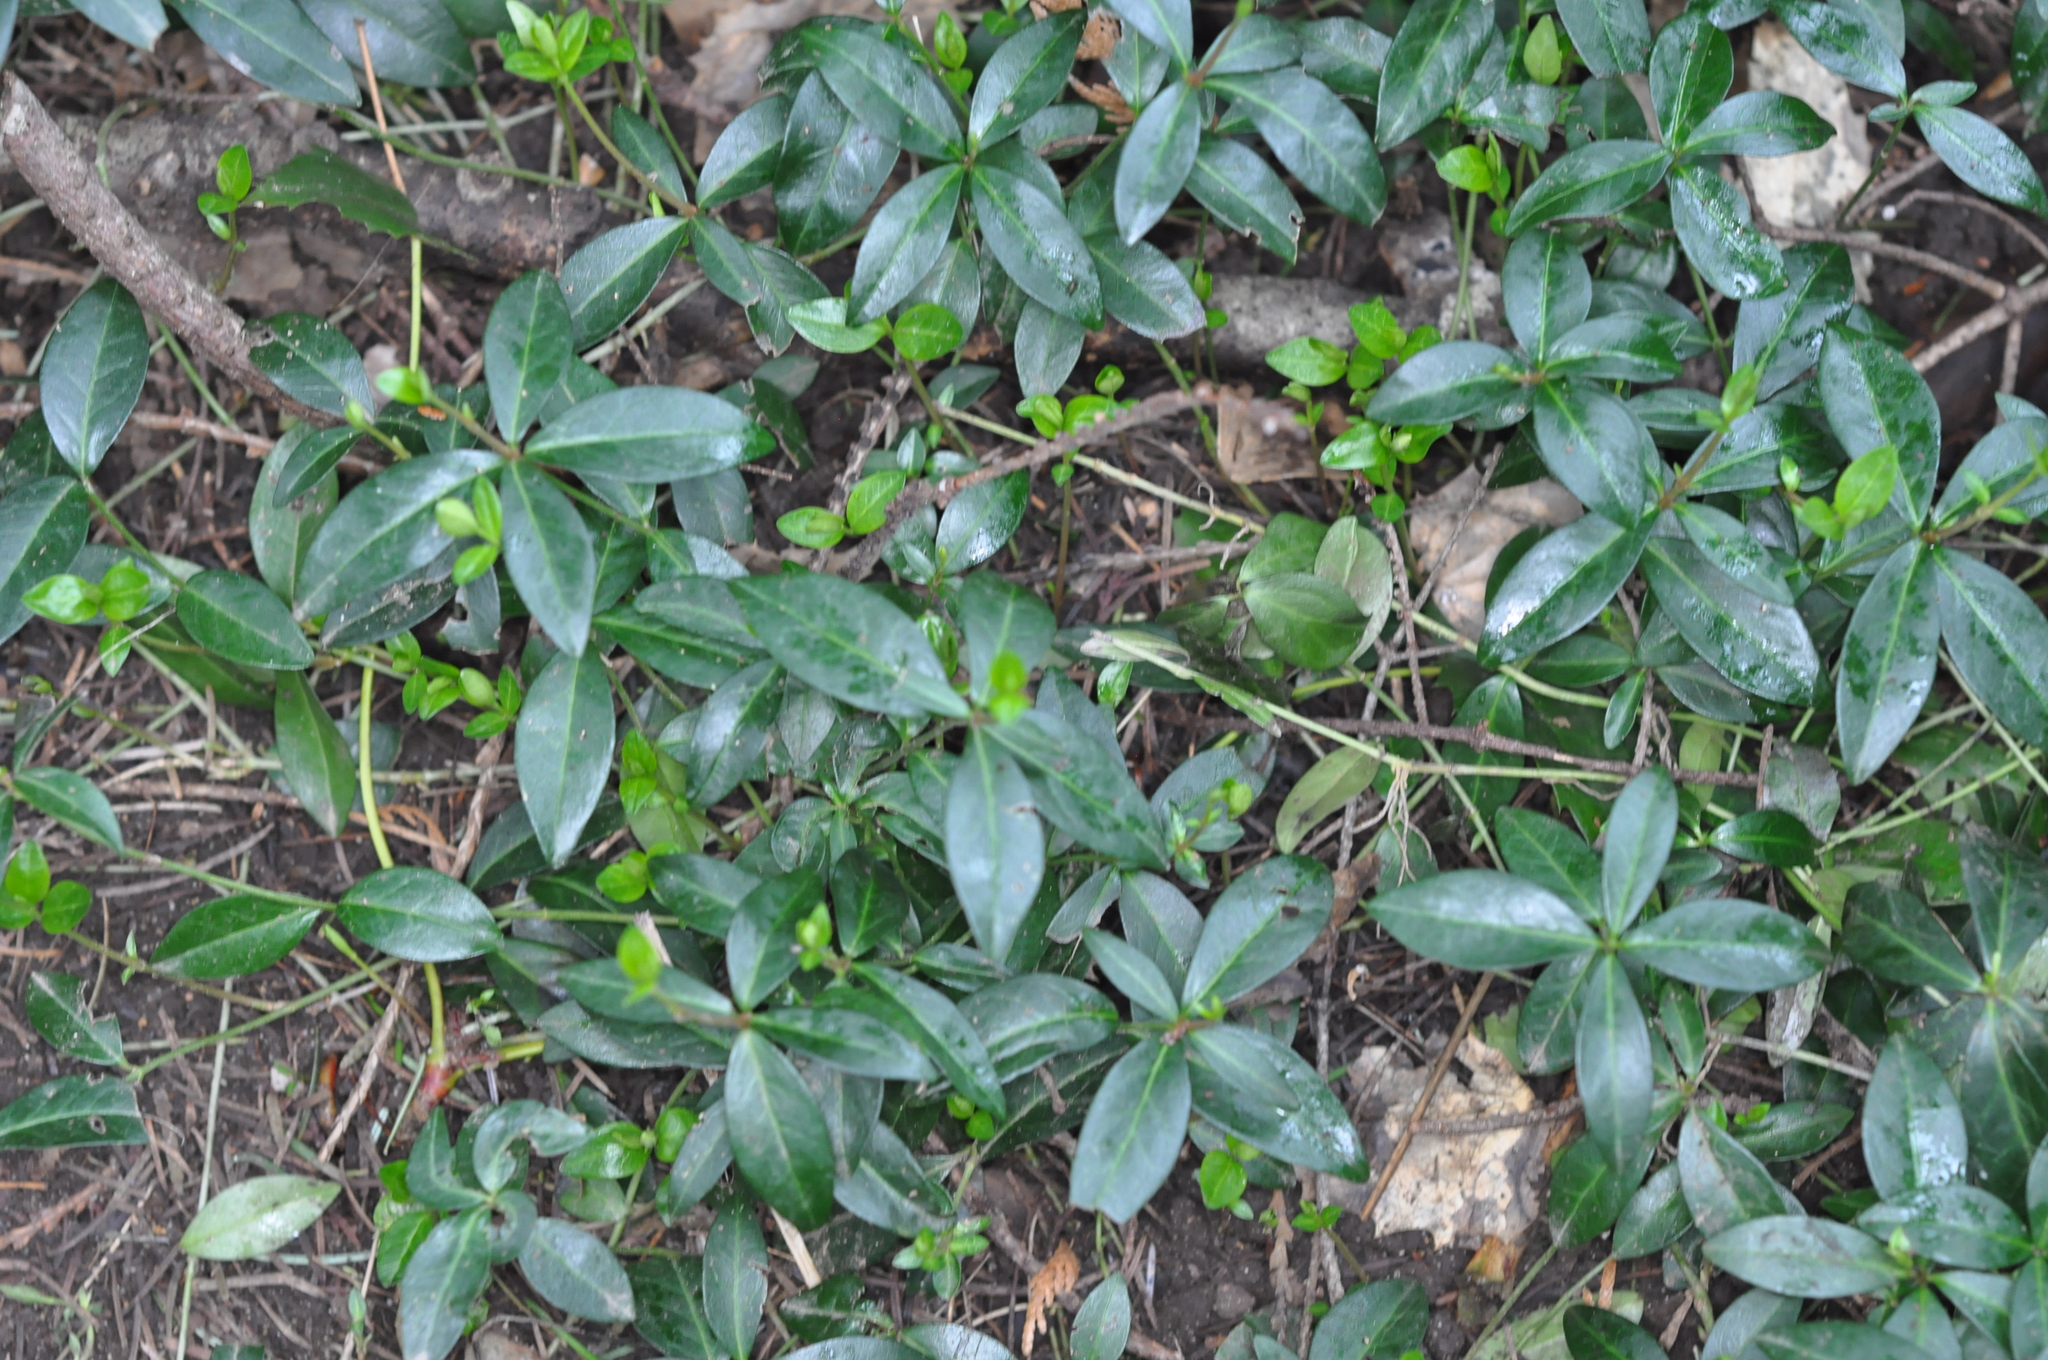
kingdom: Plantae
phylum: Tracheophyta
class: Magnoliopsida
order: Gentianales
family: Apocynaceae
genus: Vinca
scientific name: Vinca minor
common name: Lesser periwinkle
